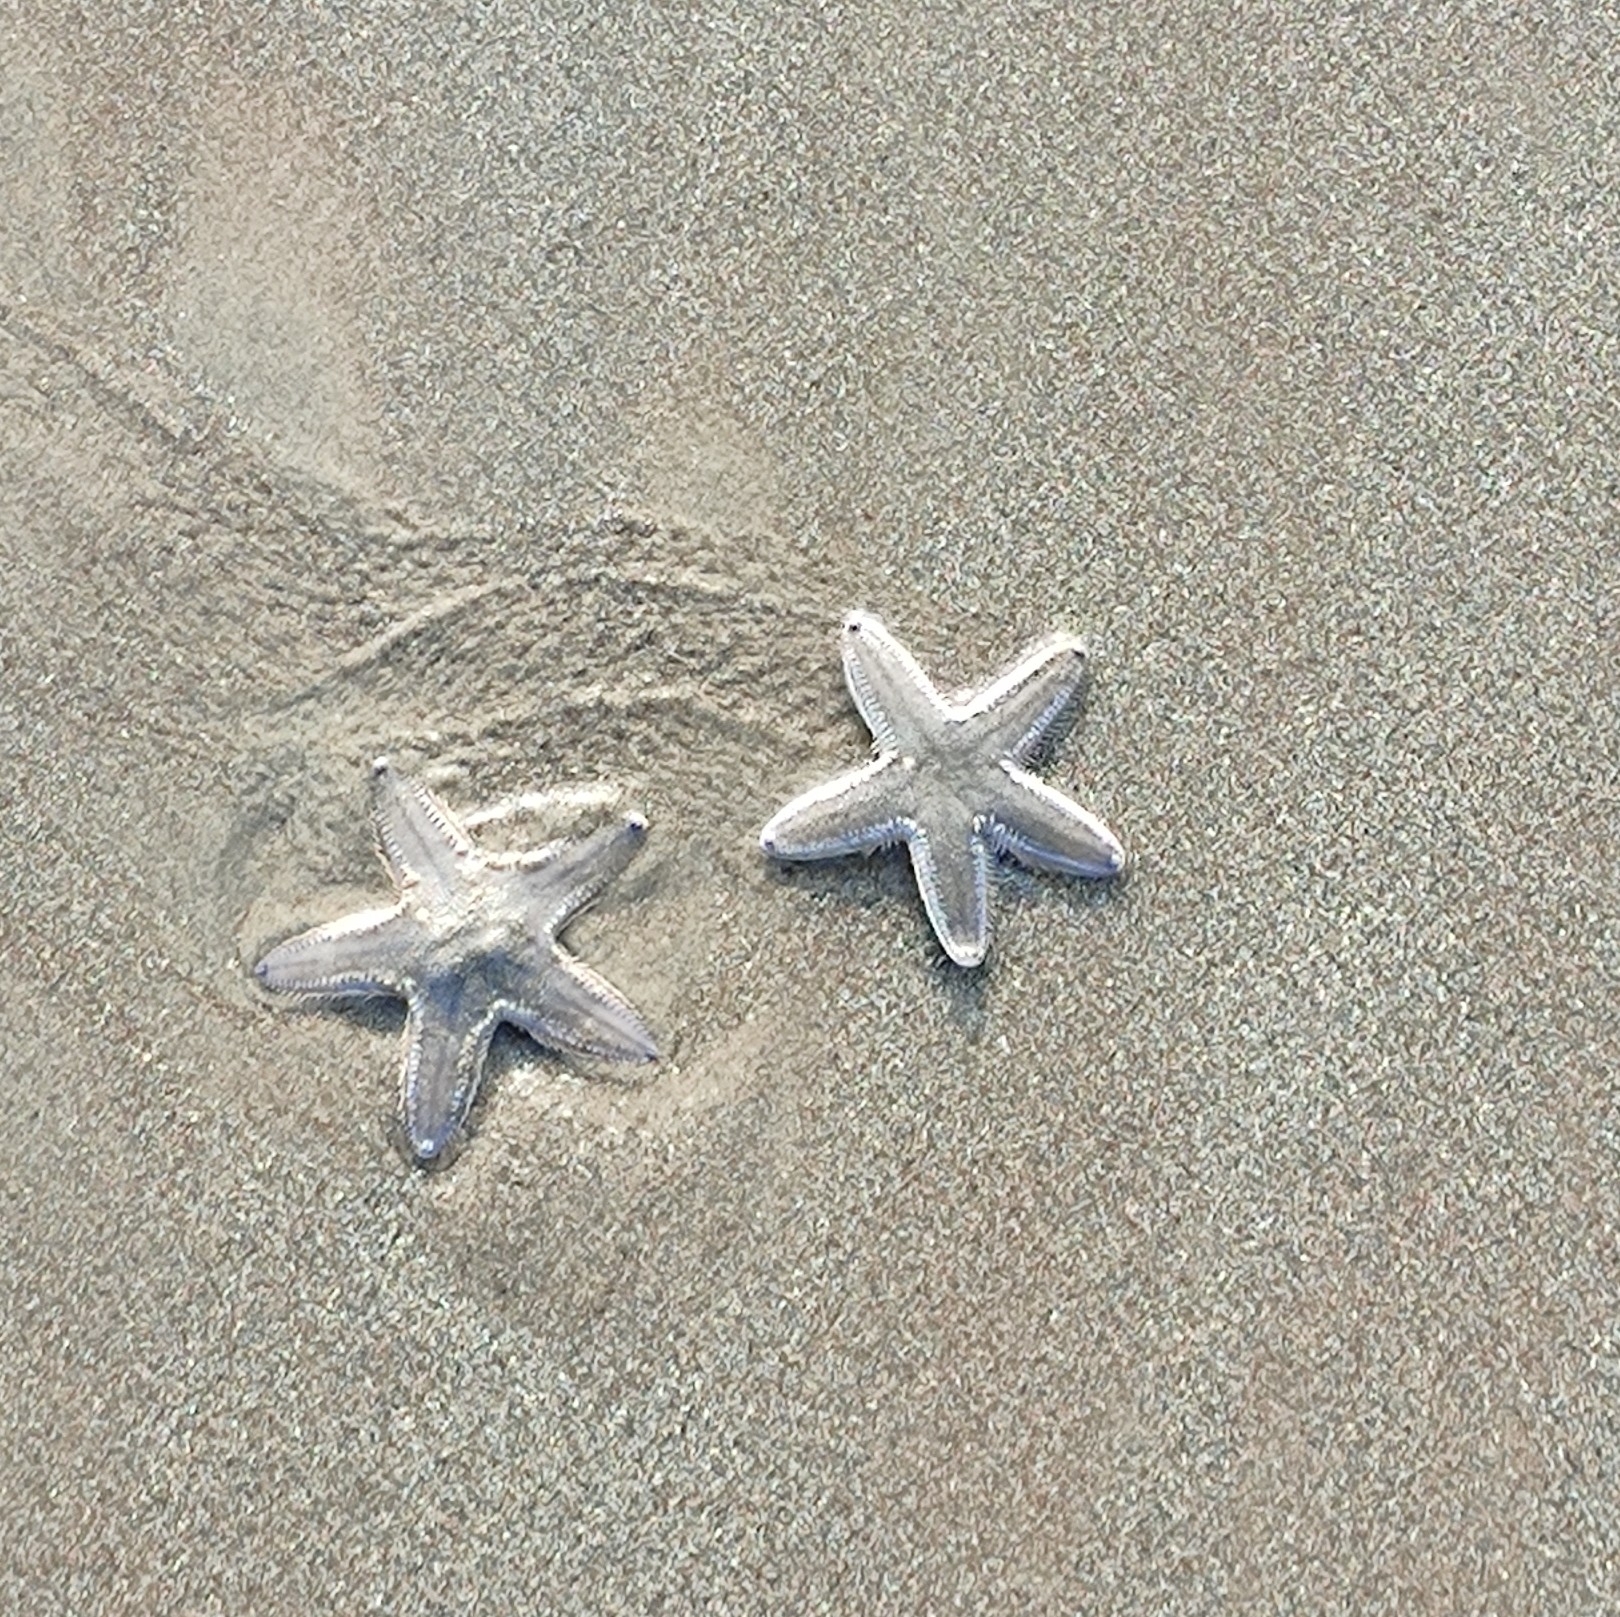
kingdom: Animalia
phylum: Echinodermata
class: Asteroidea
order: Paxillosida
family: Astropectinidae
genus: Astropecten
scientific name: Astropecten indicus
